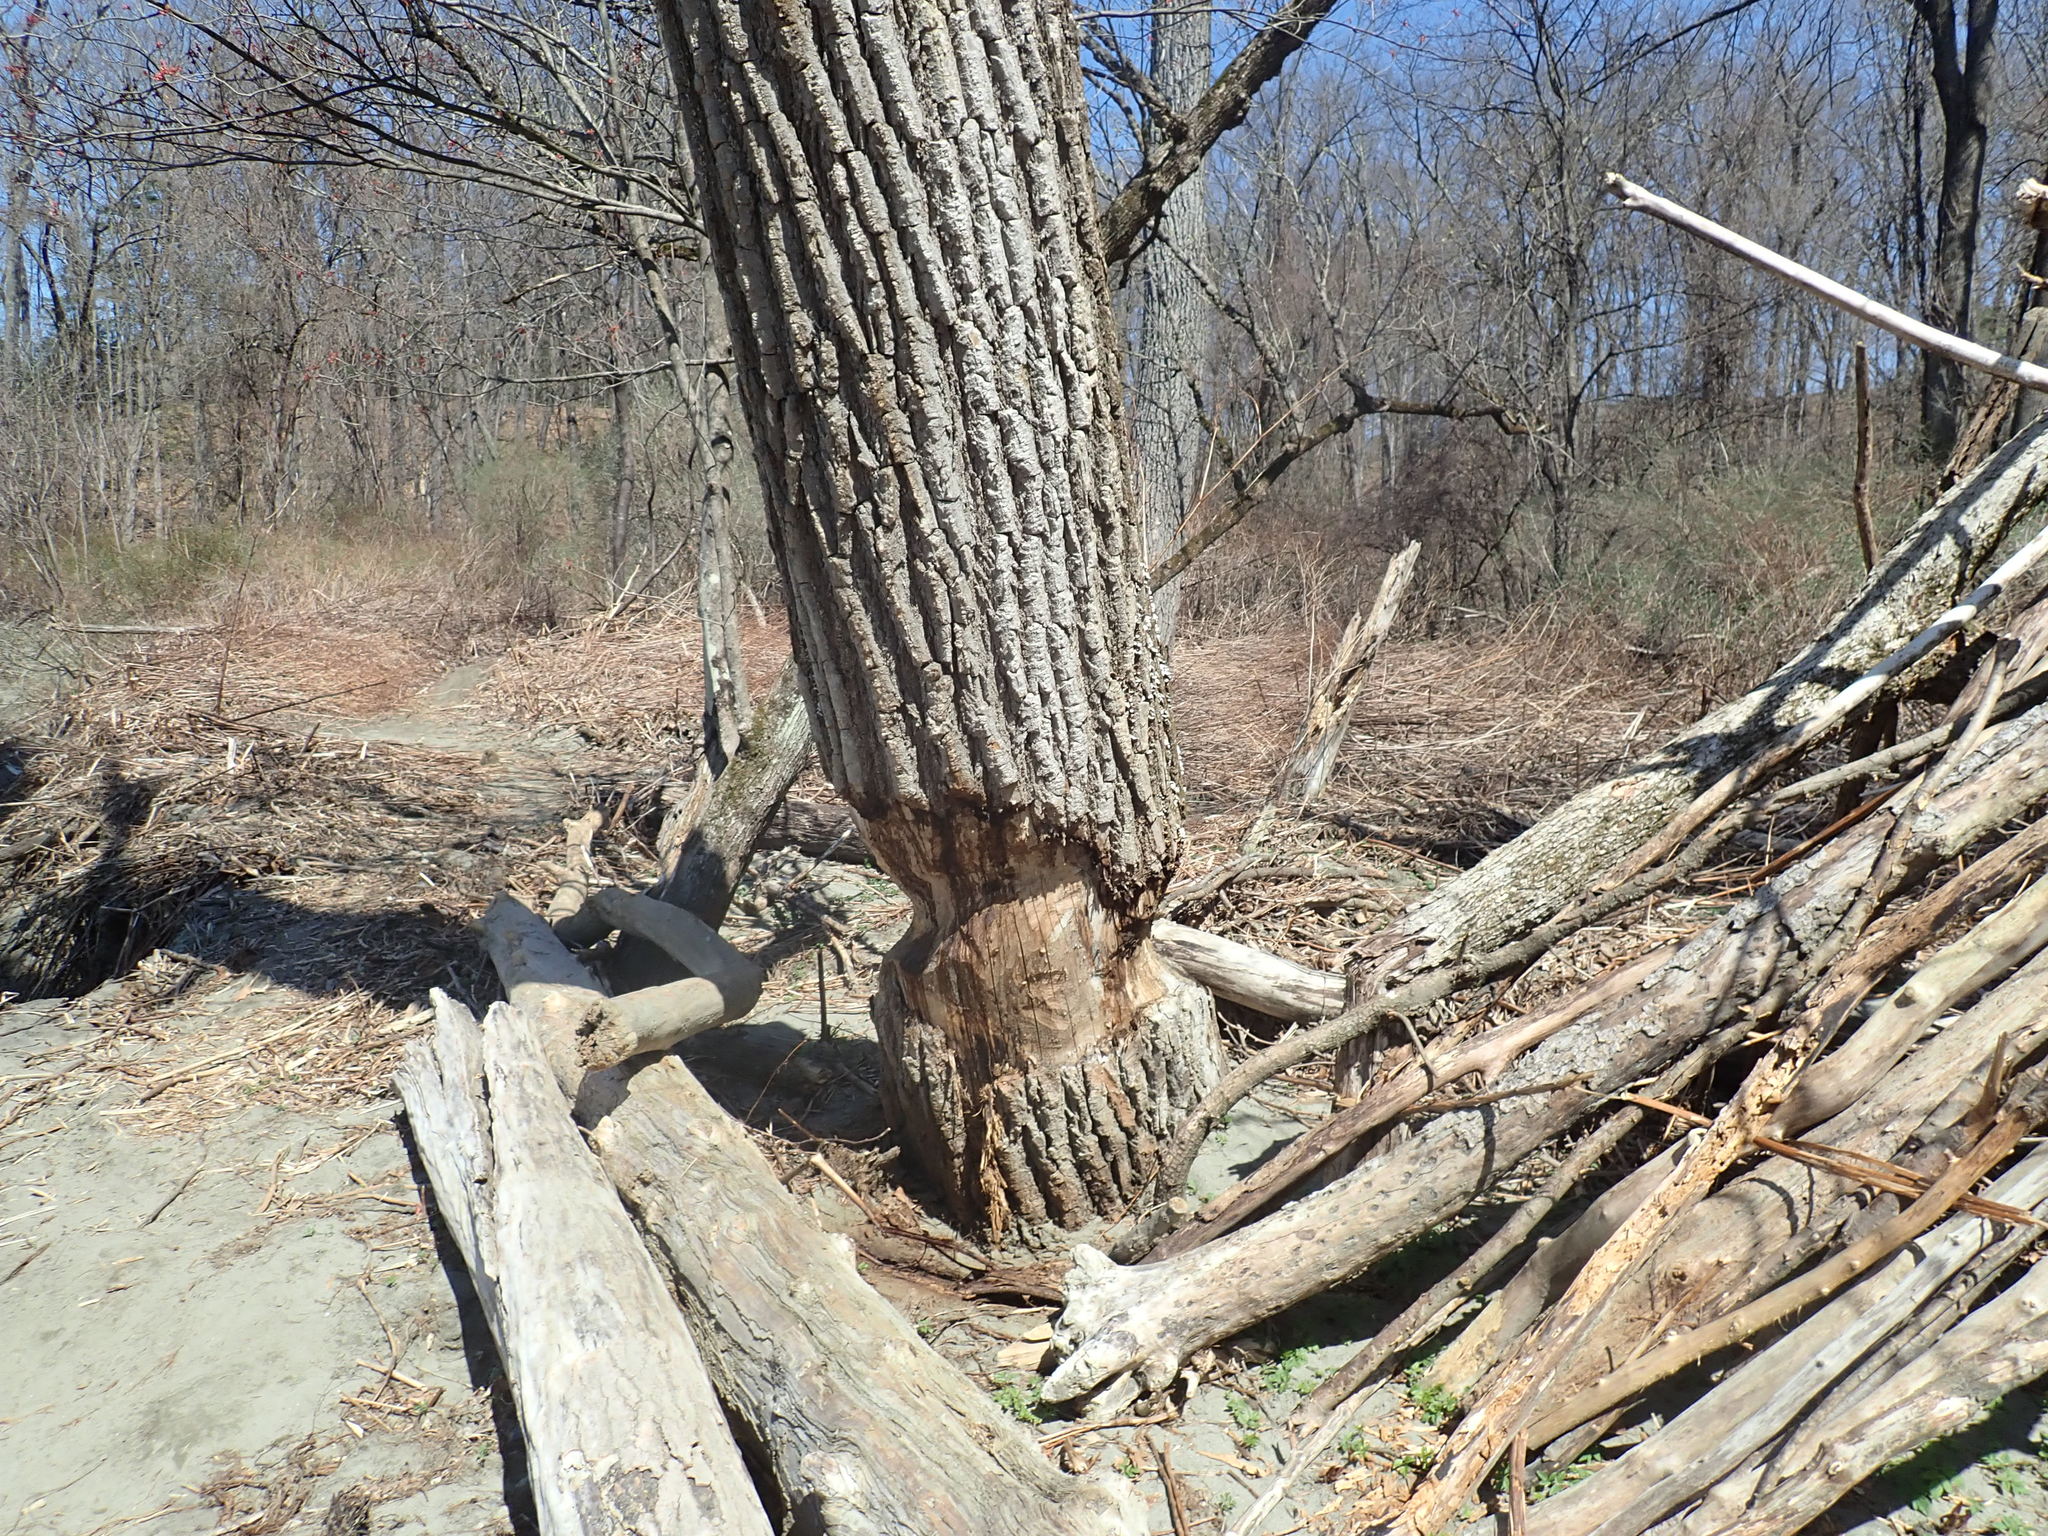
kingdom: Animalia
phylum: Chordata
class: Mammalia
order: Rodentia
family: Castoridae
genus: Castor
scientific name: Castor canadensis
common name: American beaver
